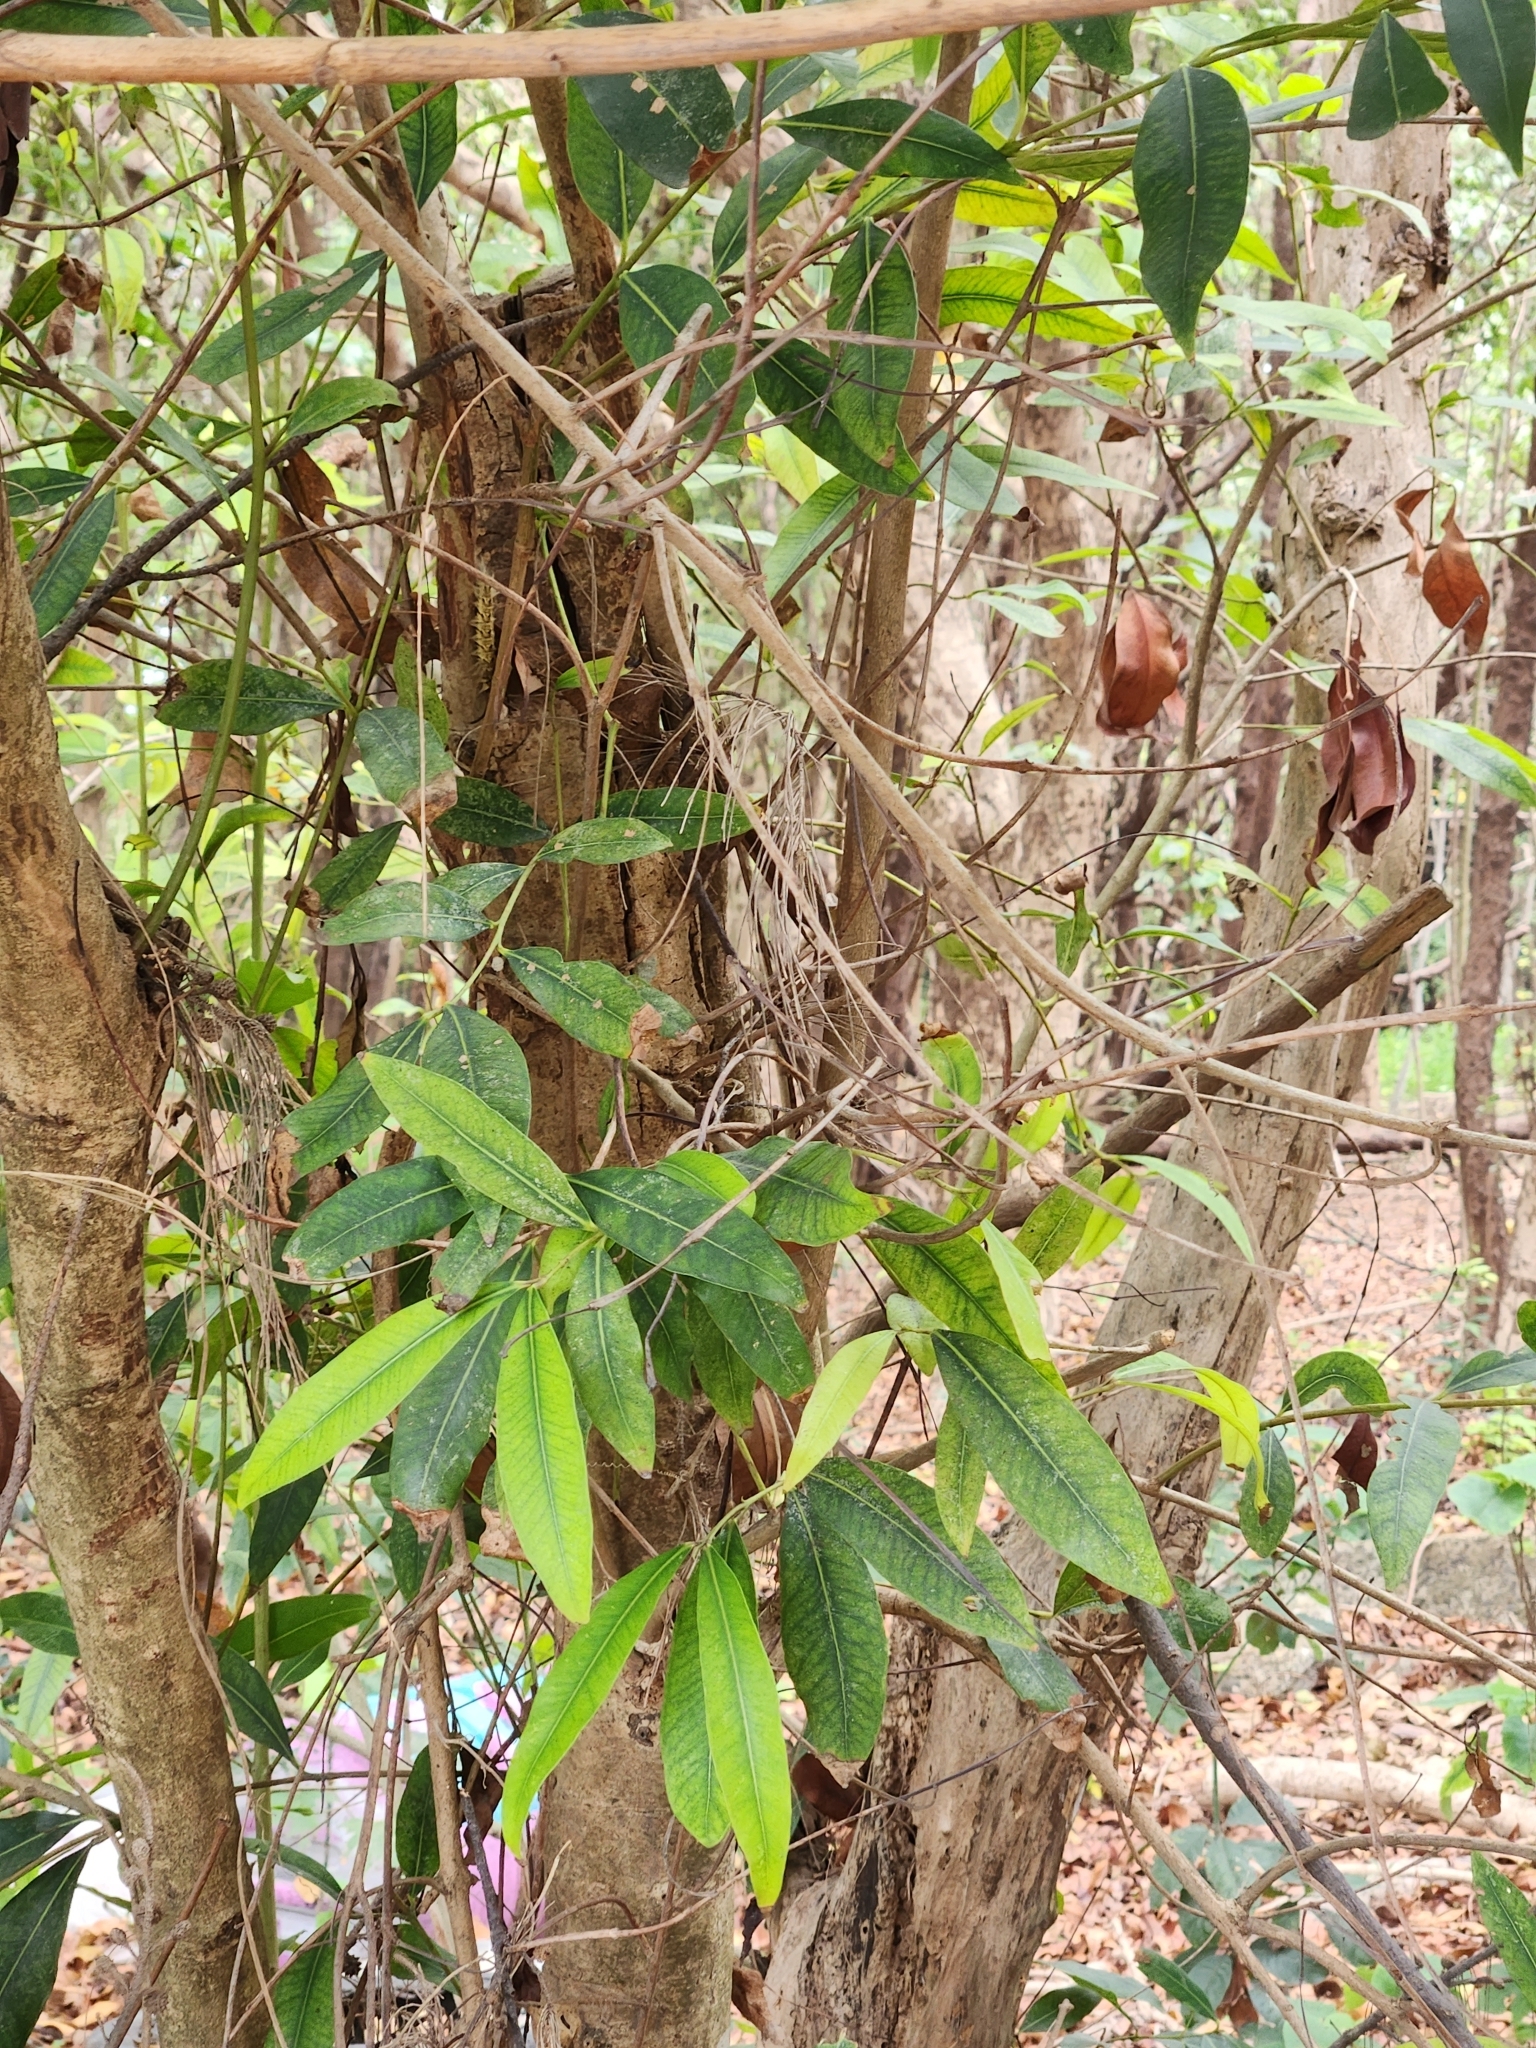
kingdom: Plantae
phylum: Tracheophyta
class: Magnoliopsida
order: Myrtales
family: Myrtaceae
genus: Syzygium
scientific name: Syzygium jambos
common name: Malabar plum
